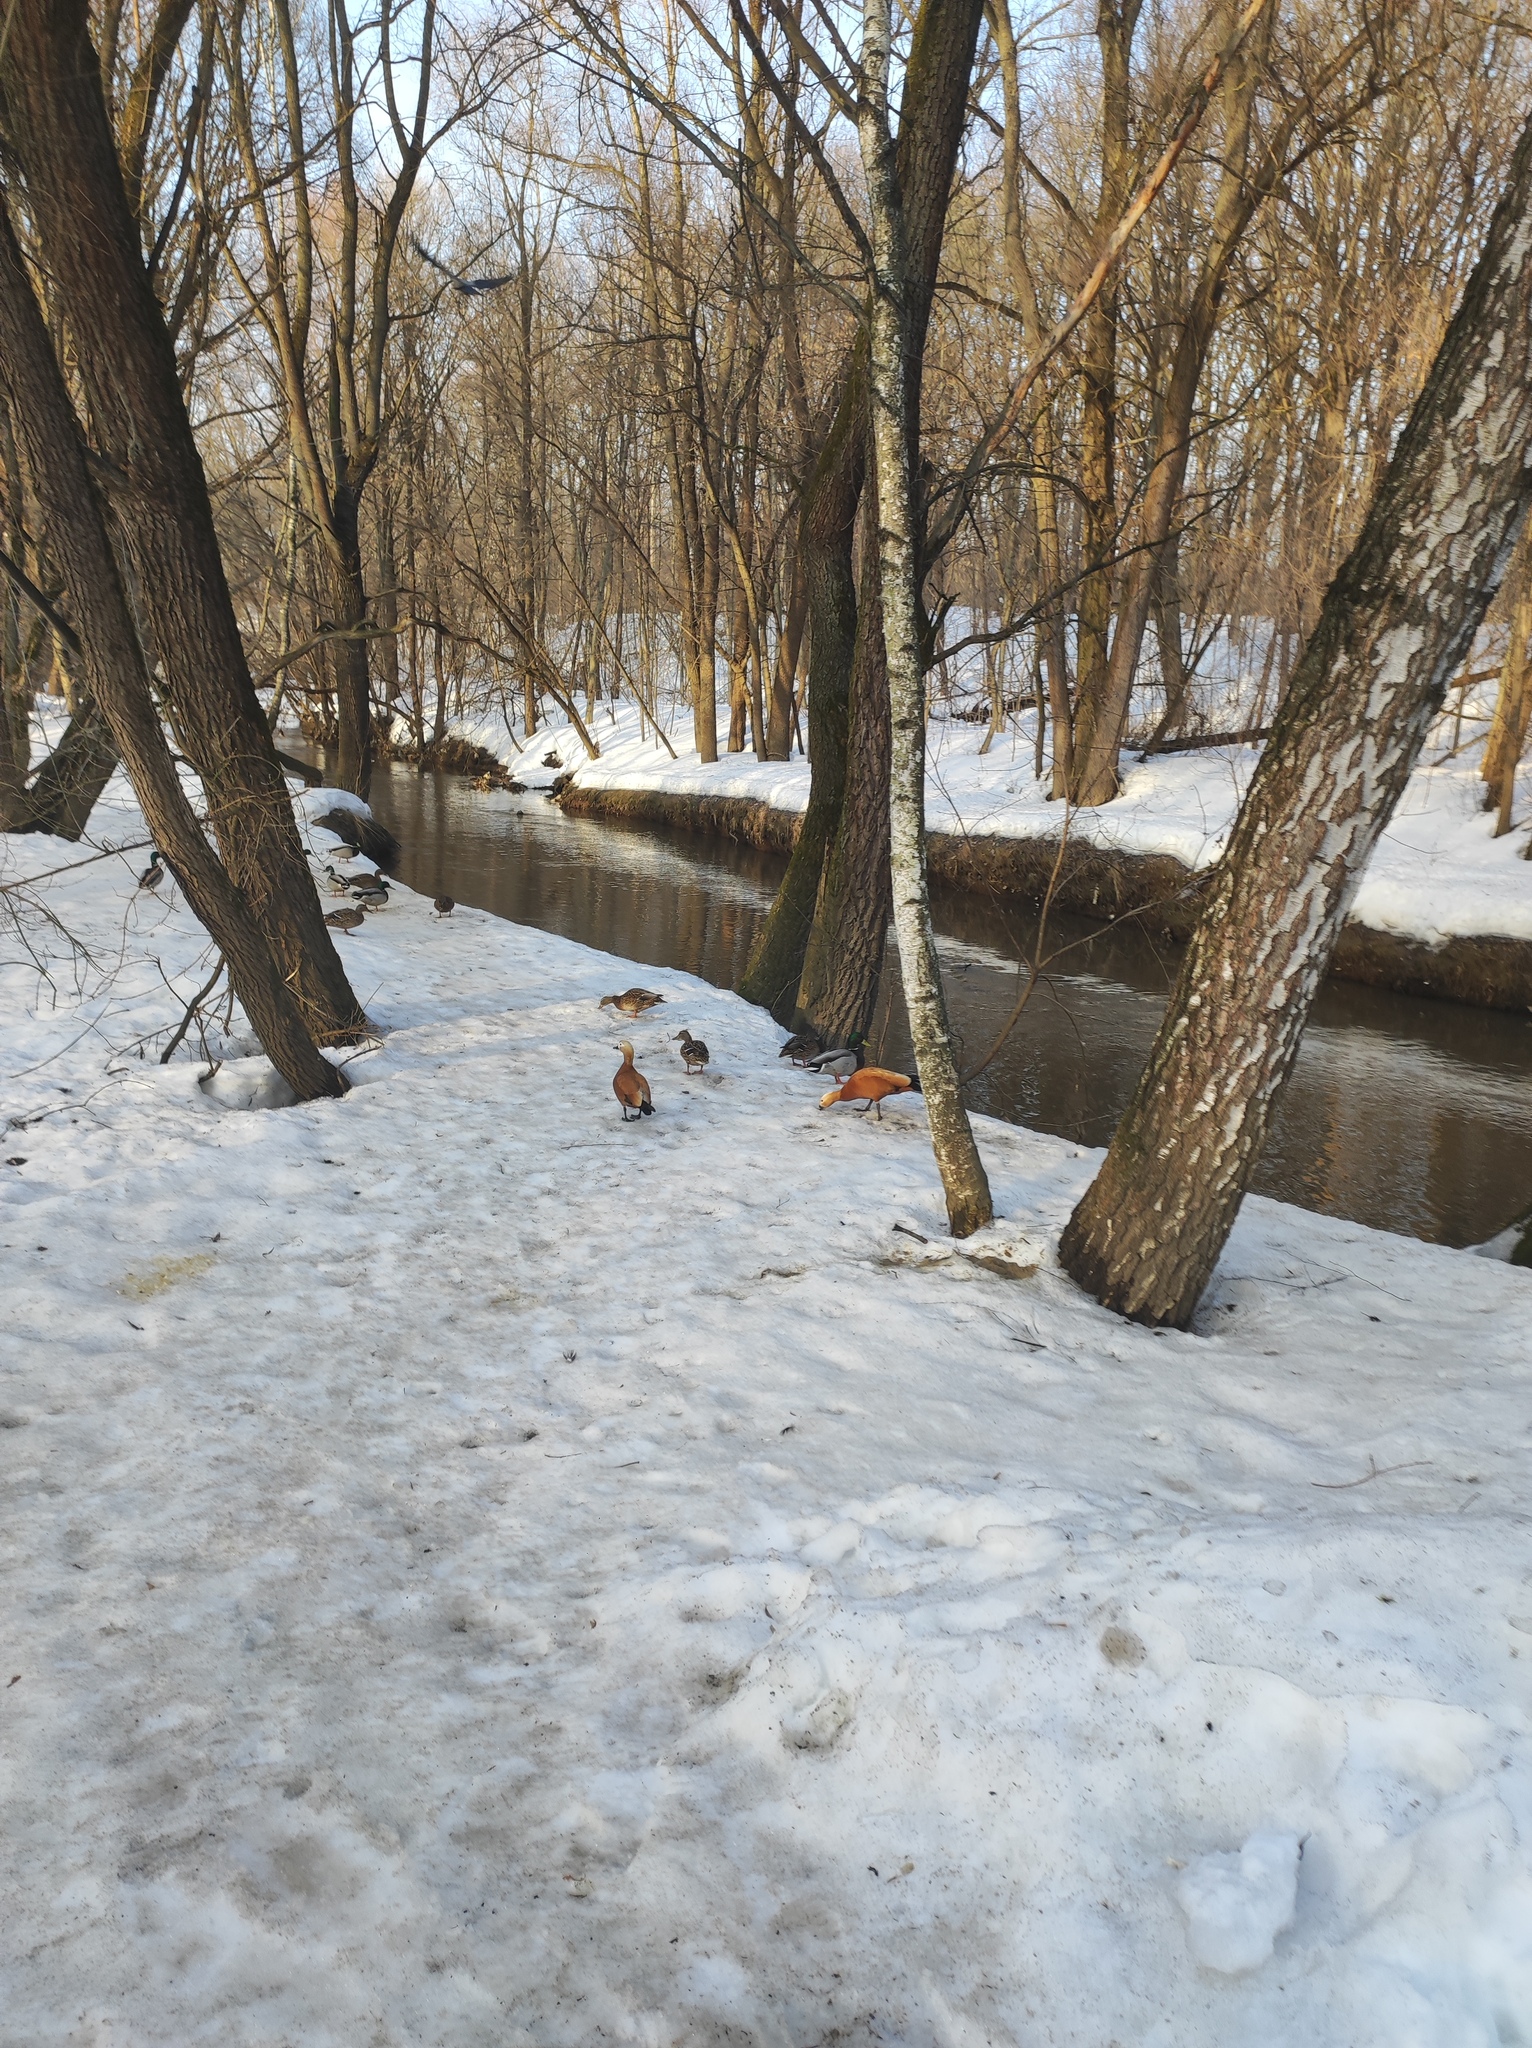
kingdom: Animalia
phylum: Chordata
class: Aves
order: Anseriformes
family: Anatidae
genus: Tadorna
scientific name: Tadorna ferruginea
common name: Ruddy shelduck
